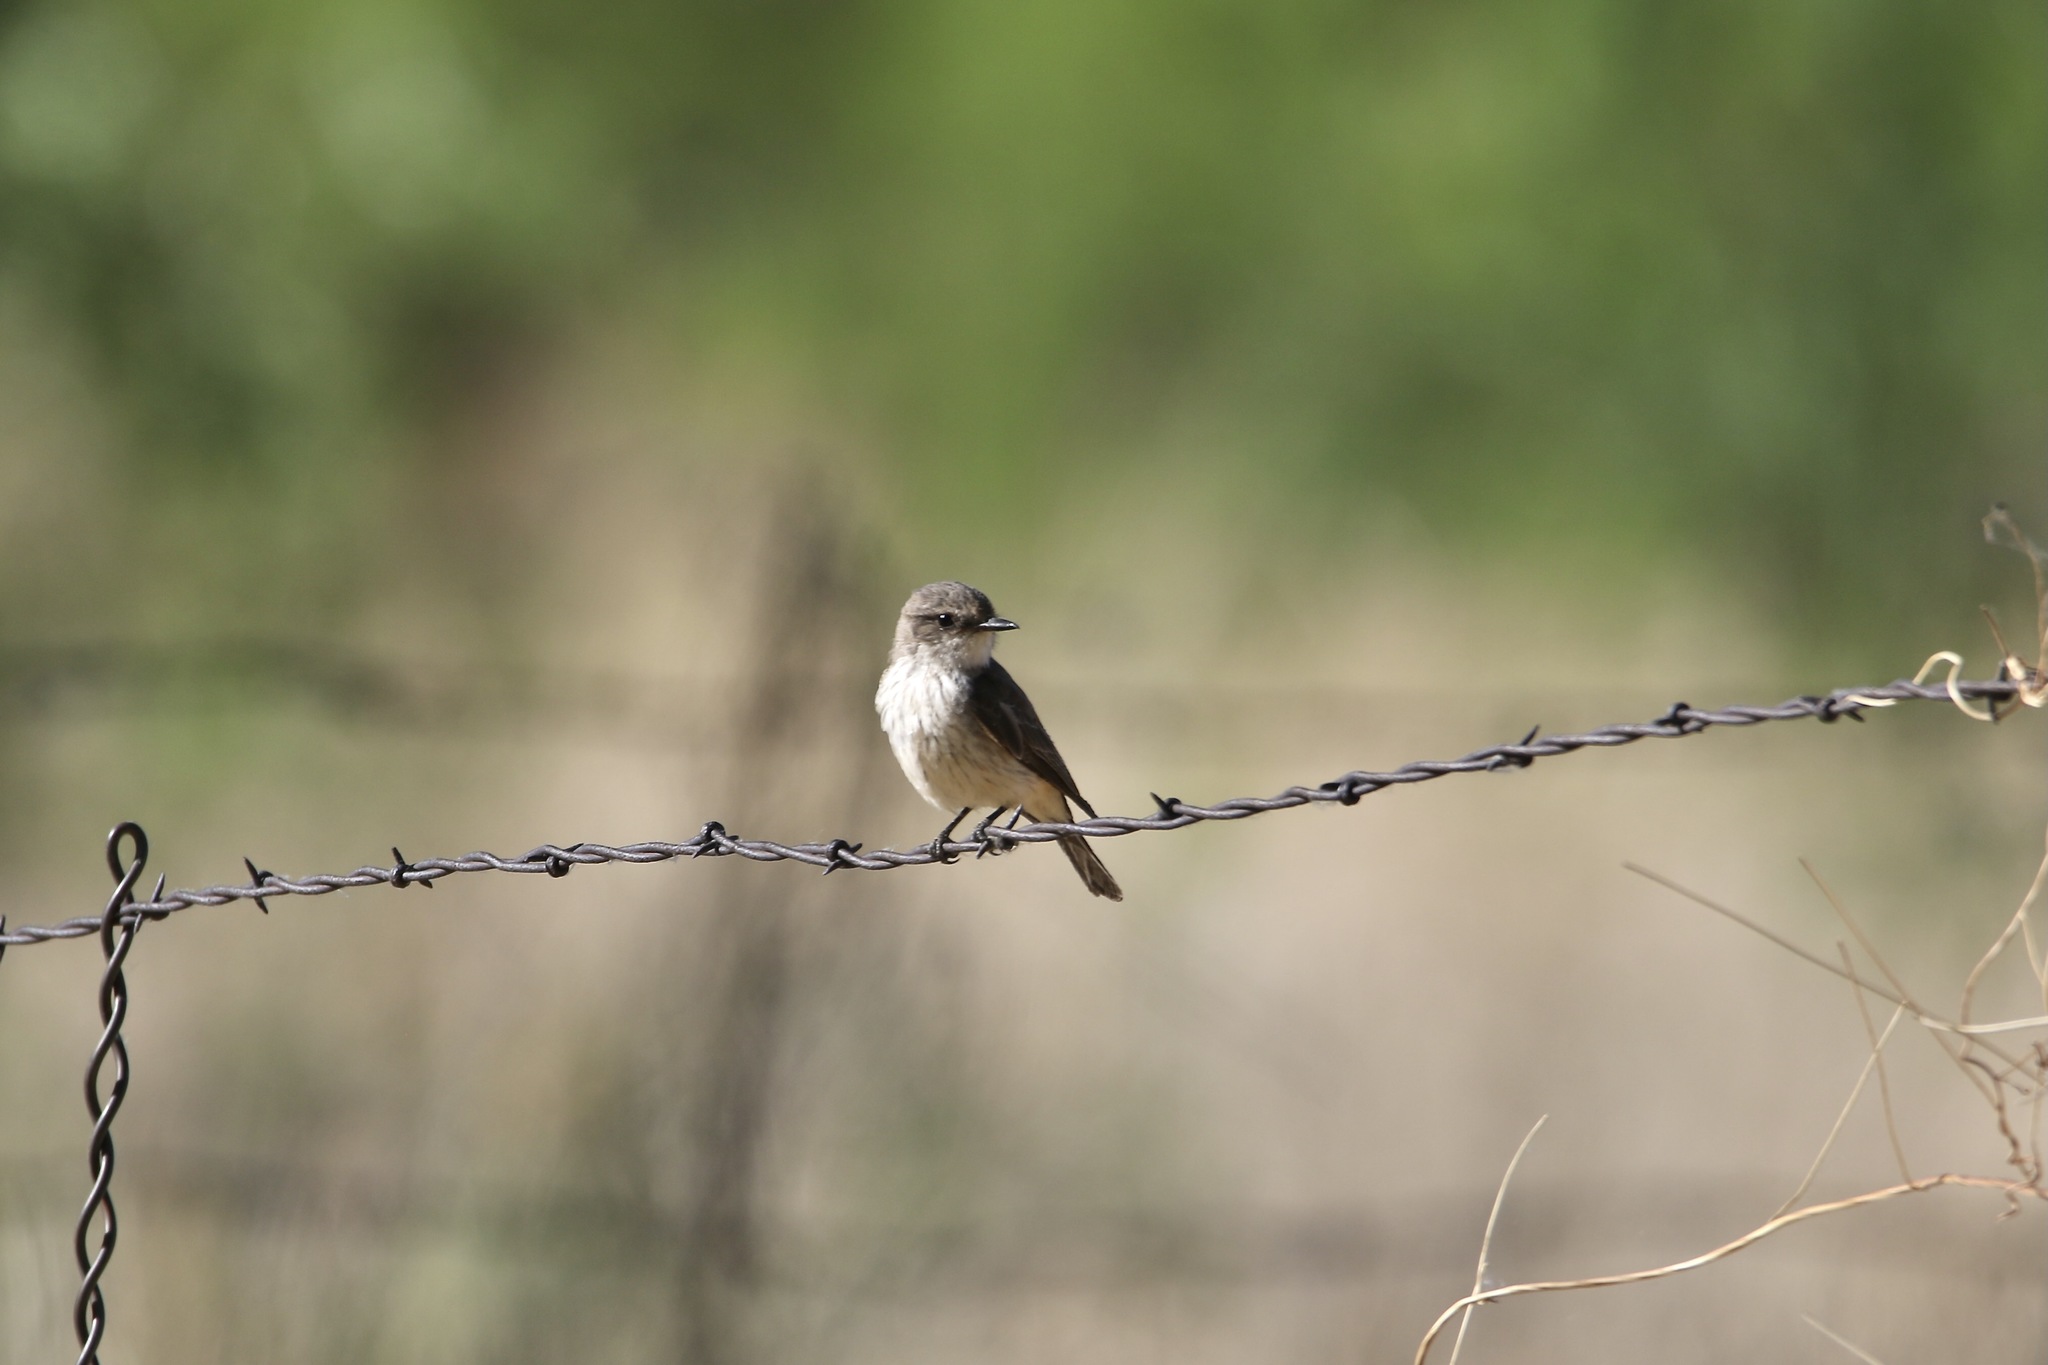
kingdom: Animalia
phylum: Chordata
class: Aves
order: Passeriformes
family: Tyrannidae
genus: Pyrocephalus
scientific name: Pyrocephalus rubinus
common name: Vermilion flycatcher
